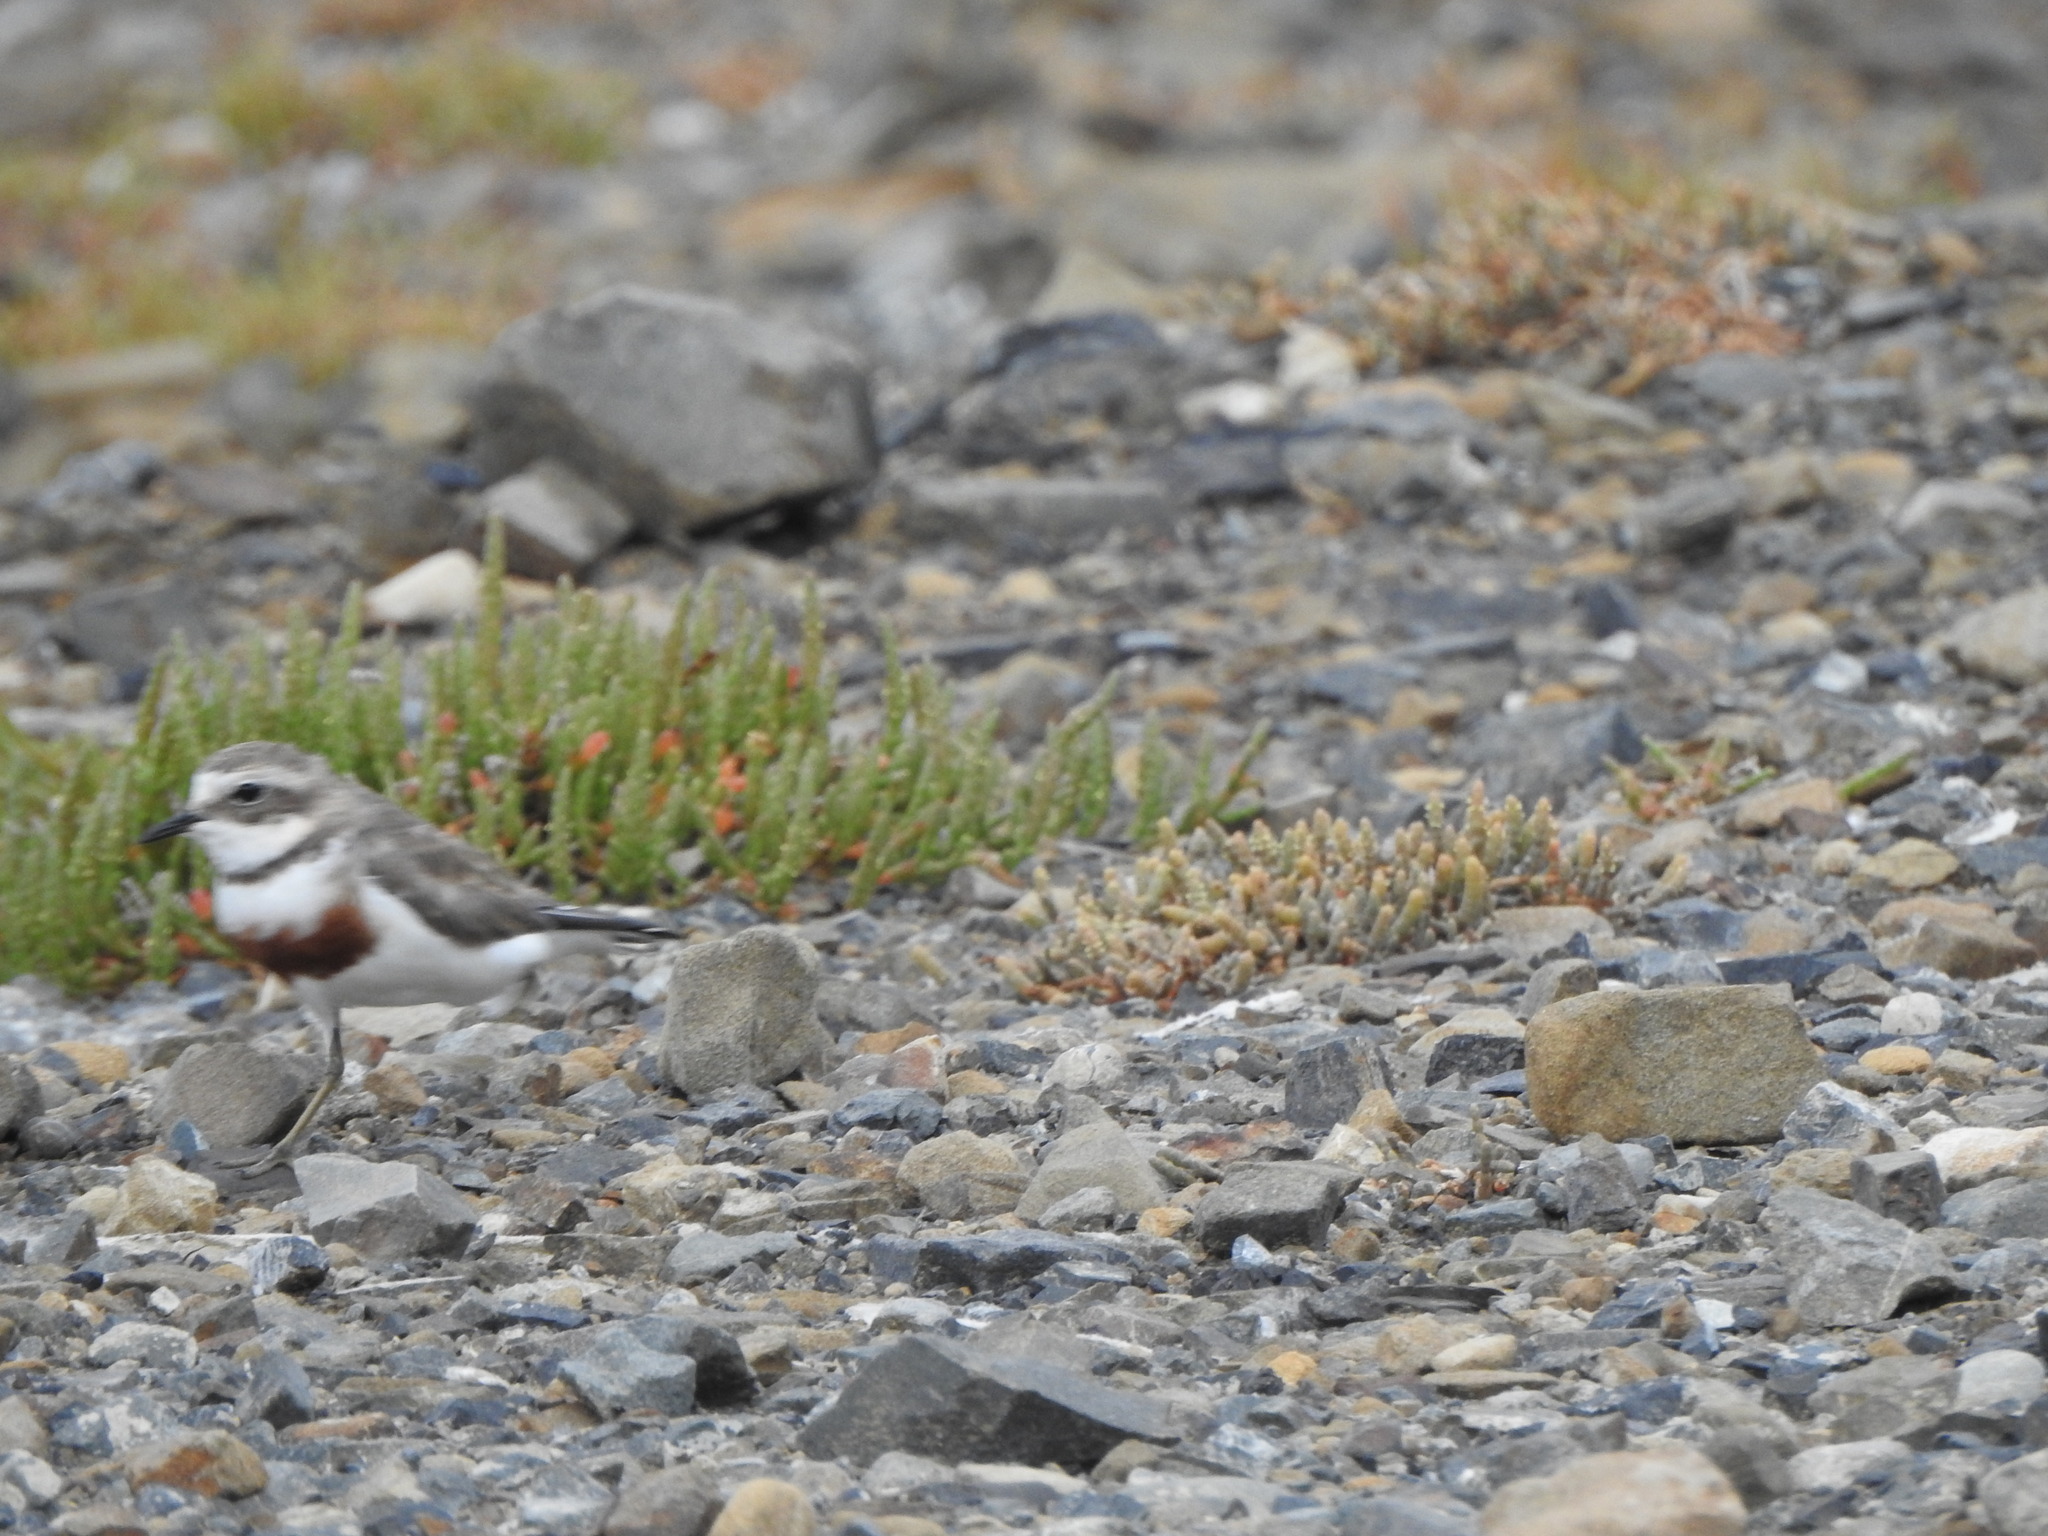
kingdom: Animalia
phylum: Chordata
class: Aves
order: Charadriiformes
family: Charadriidae
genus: Anarhynchus
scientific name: Anarhynchus
